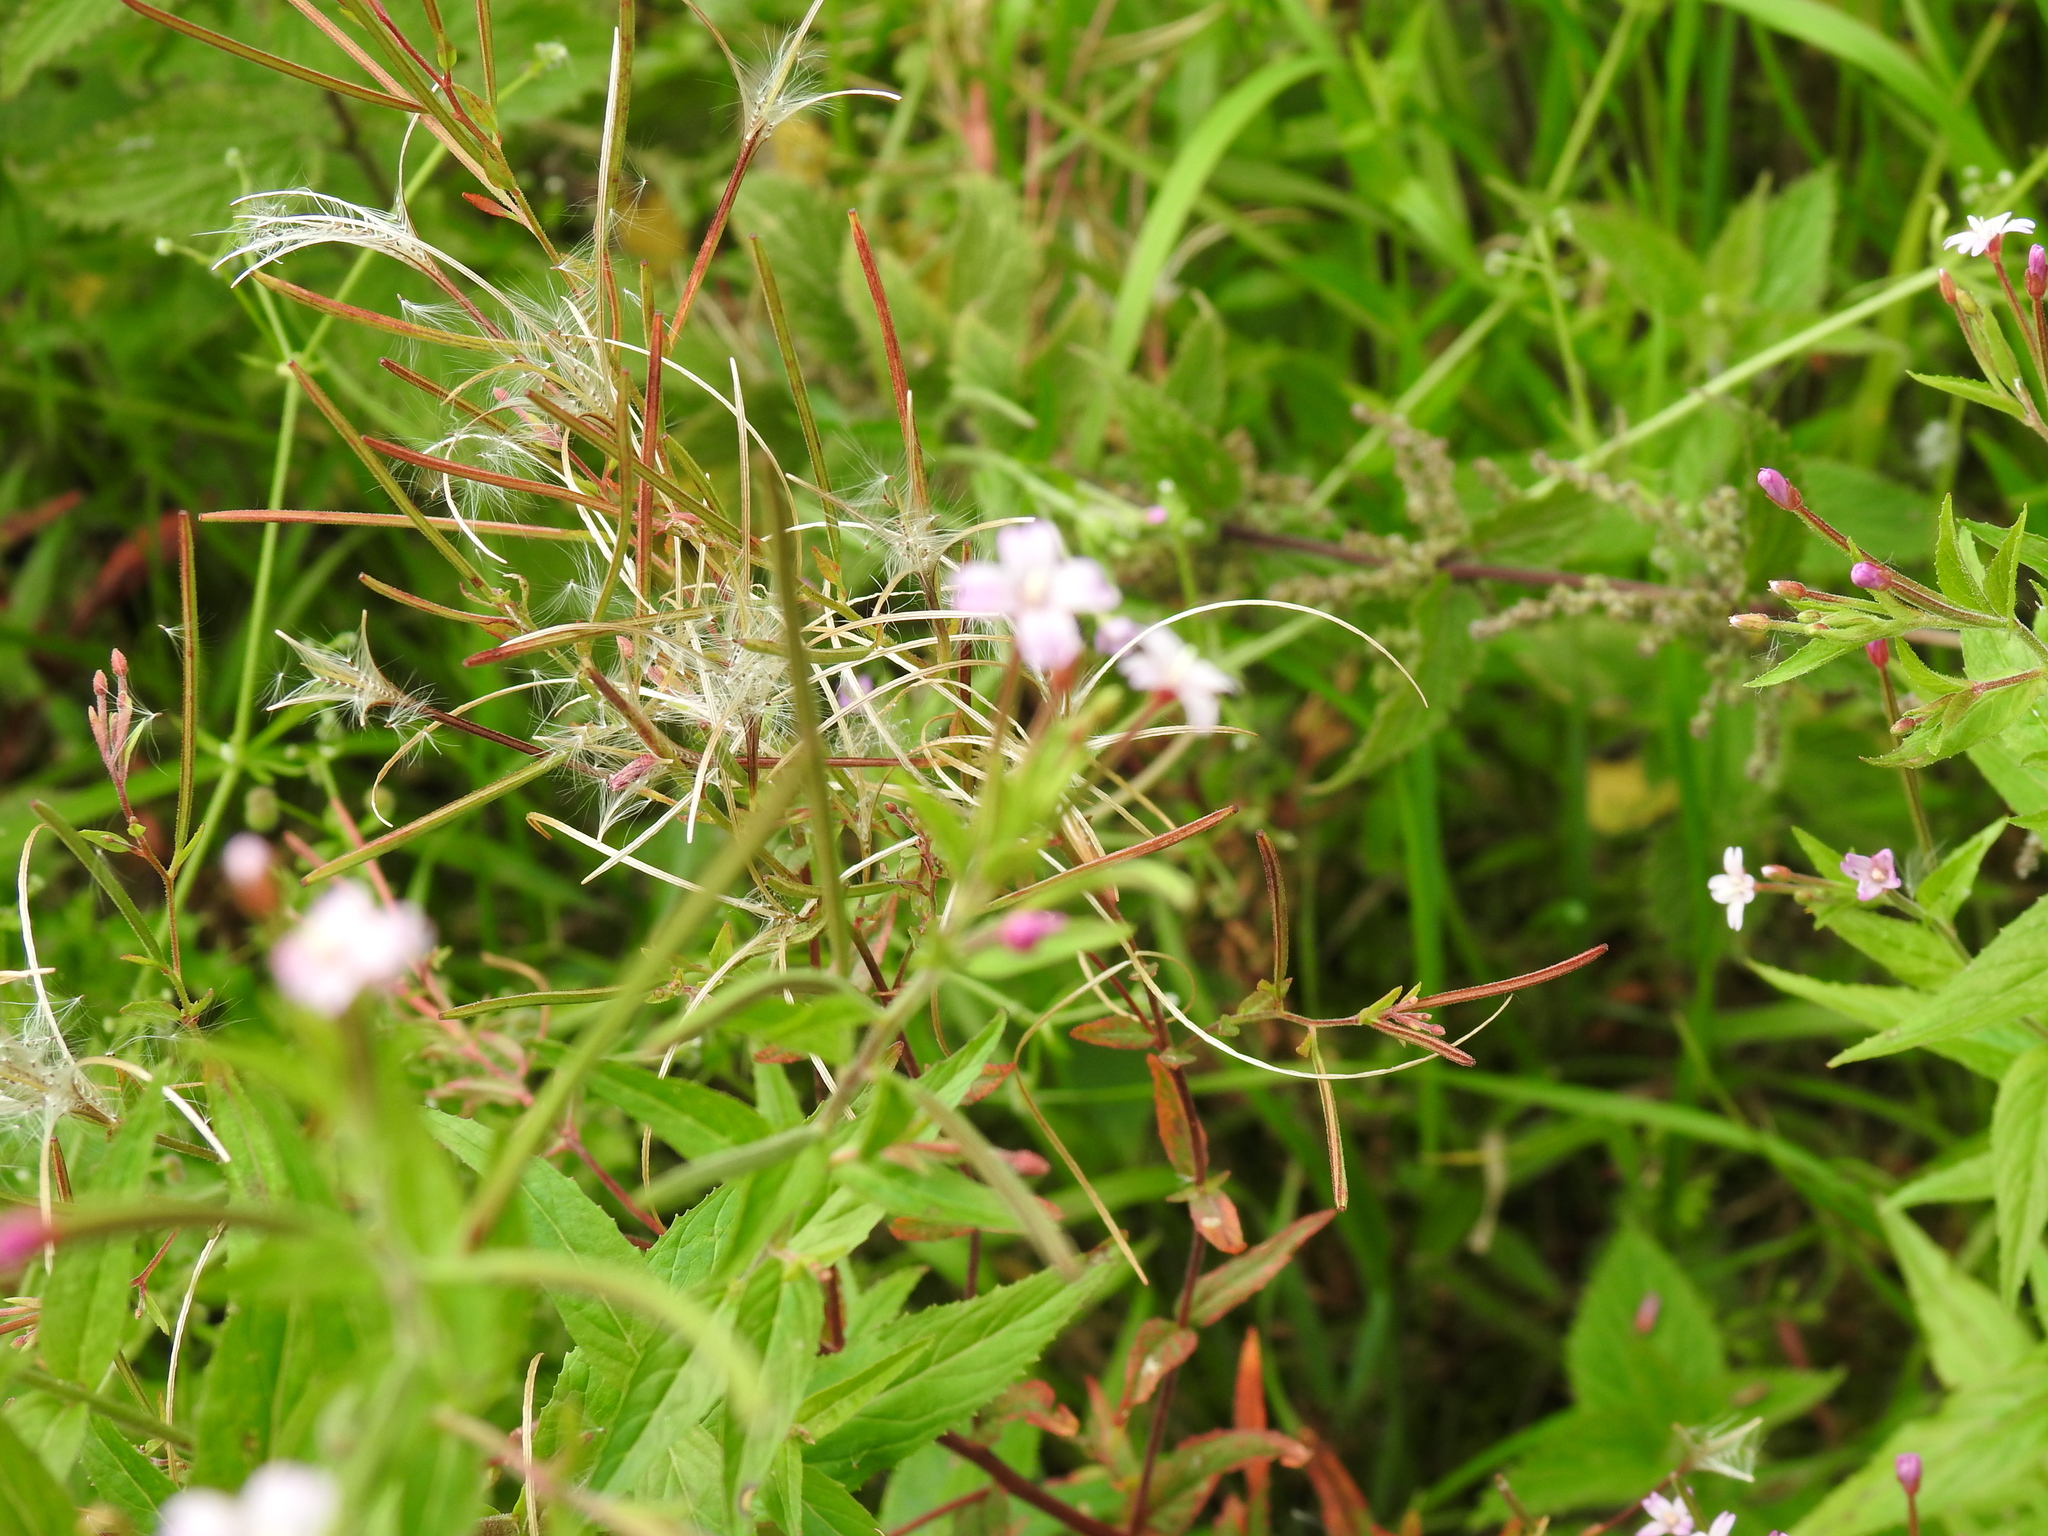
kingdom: Plantae
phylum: Tracheophyta
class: Magnoliopsida
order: Myrtales
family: Onagraceae
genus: Epilobium
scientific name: Epilobium ciliatum
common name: American willowherb
